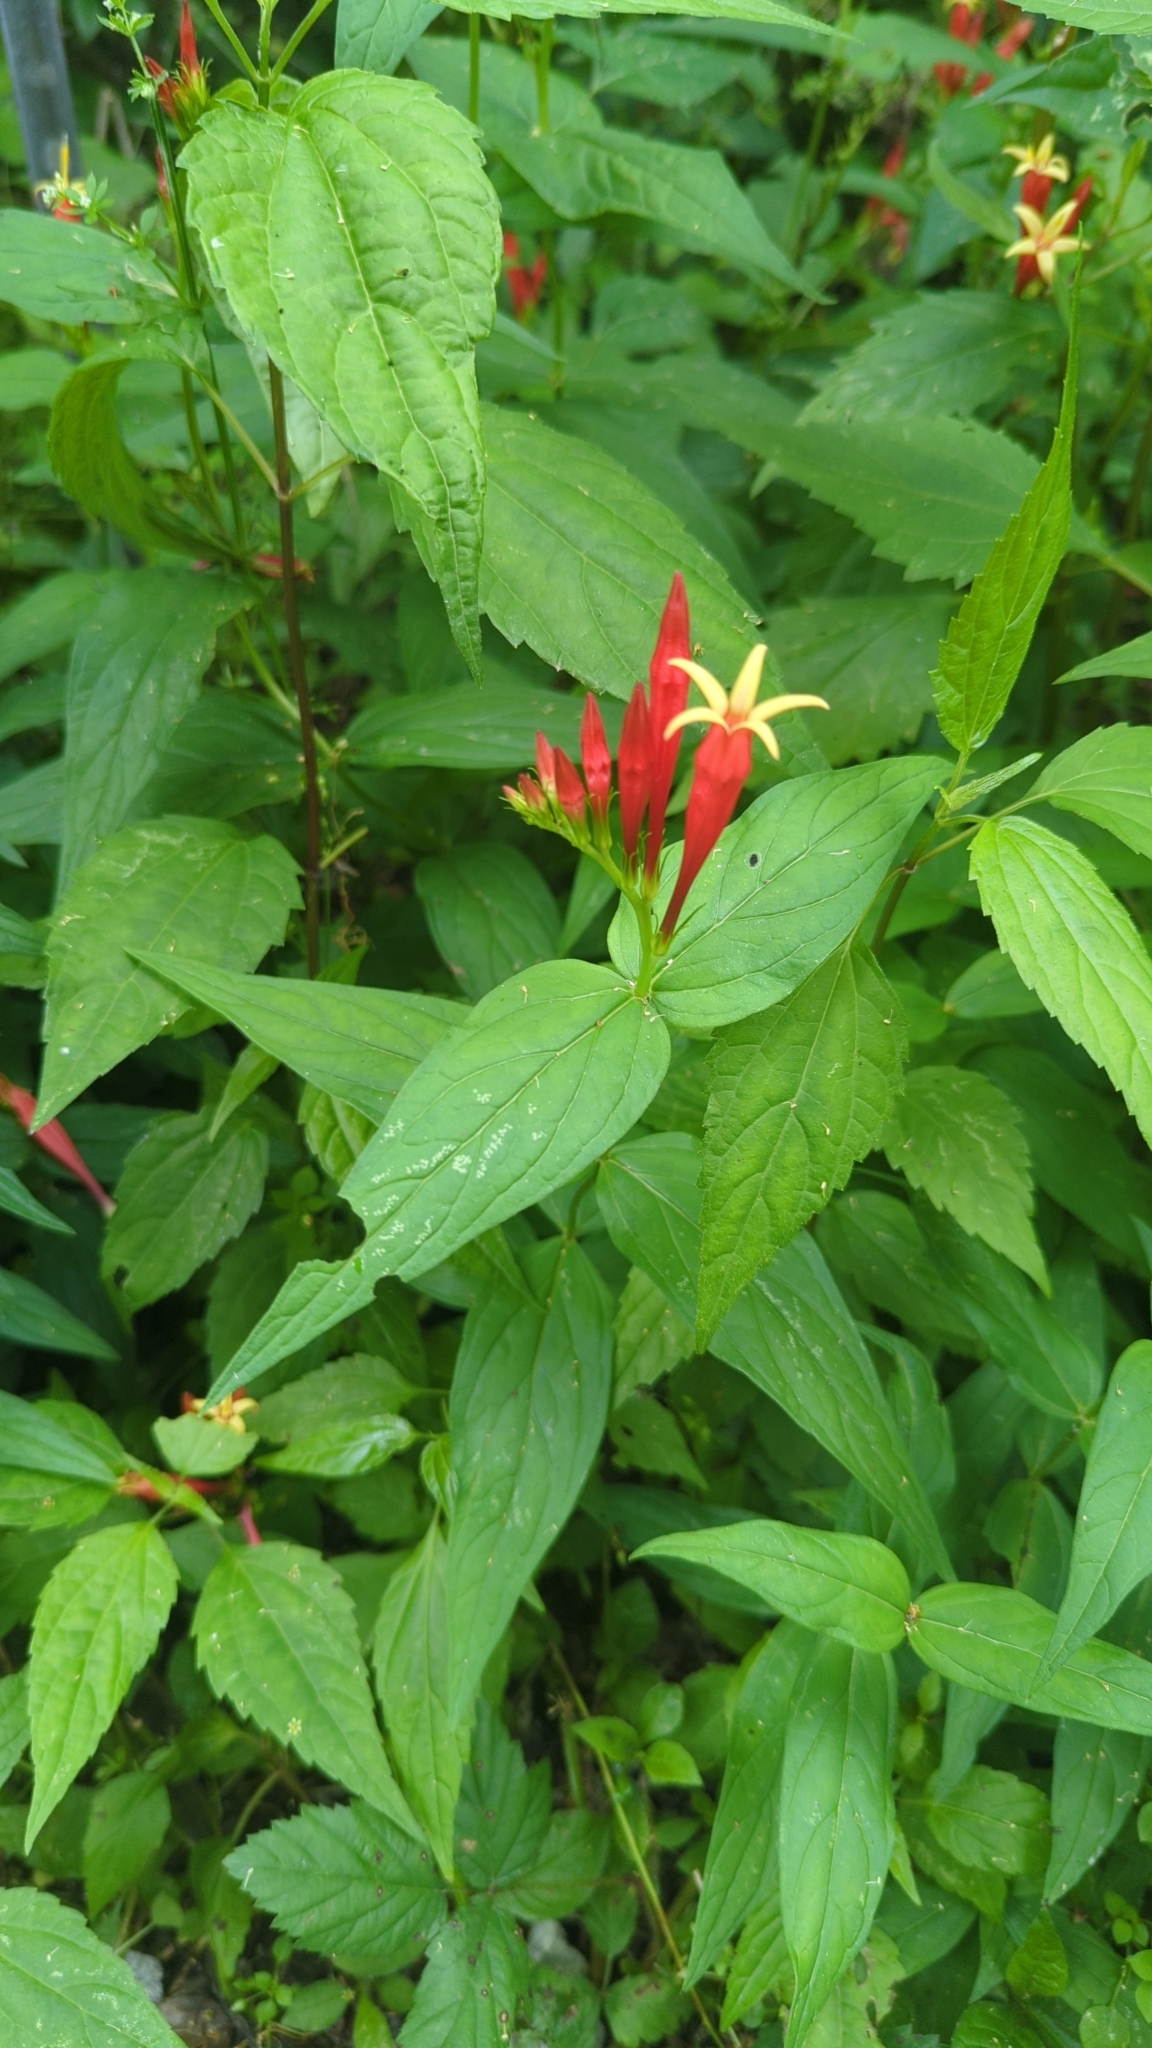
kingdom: Plantae
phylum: Tracheophyta
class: Magnoliopsida
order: Gentianales
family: Loganiaceae
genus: Spigelia
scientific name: Spigelia marilandica
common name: Indian-pink
